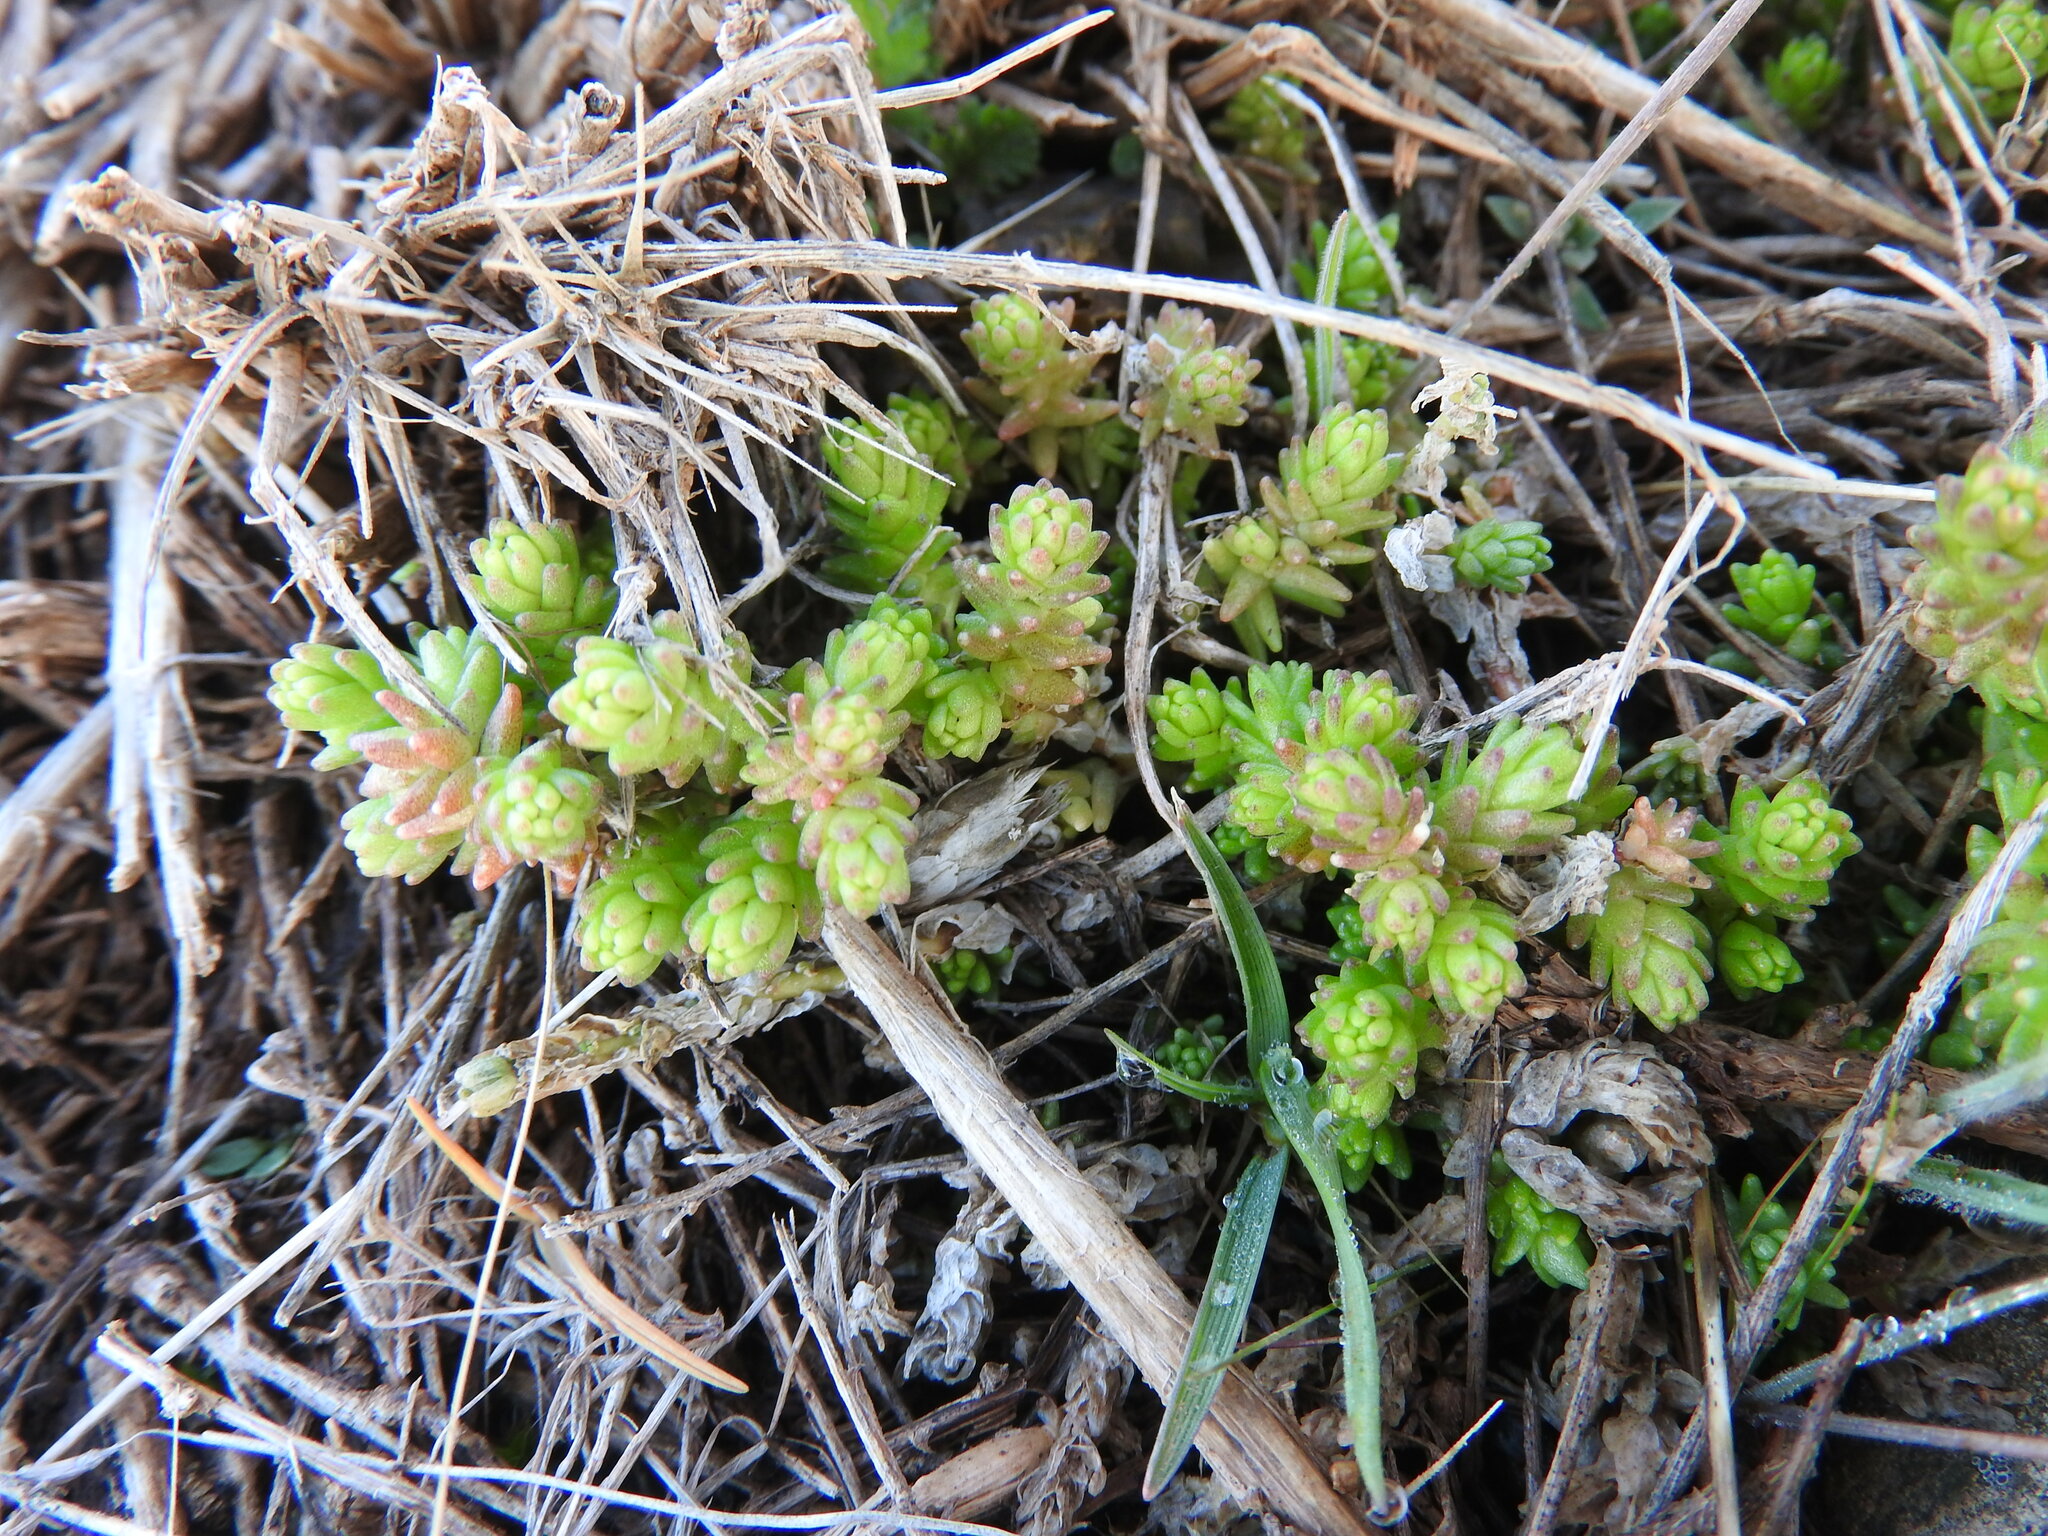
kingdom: Plantae
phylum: Tracheophyta
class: Magnoliopsida
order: Saxifragales
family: Crassulaceae
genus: Sedum
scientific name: Sedum acre
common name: Biting stonecrop
